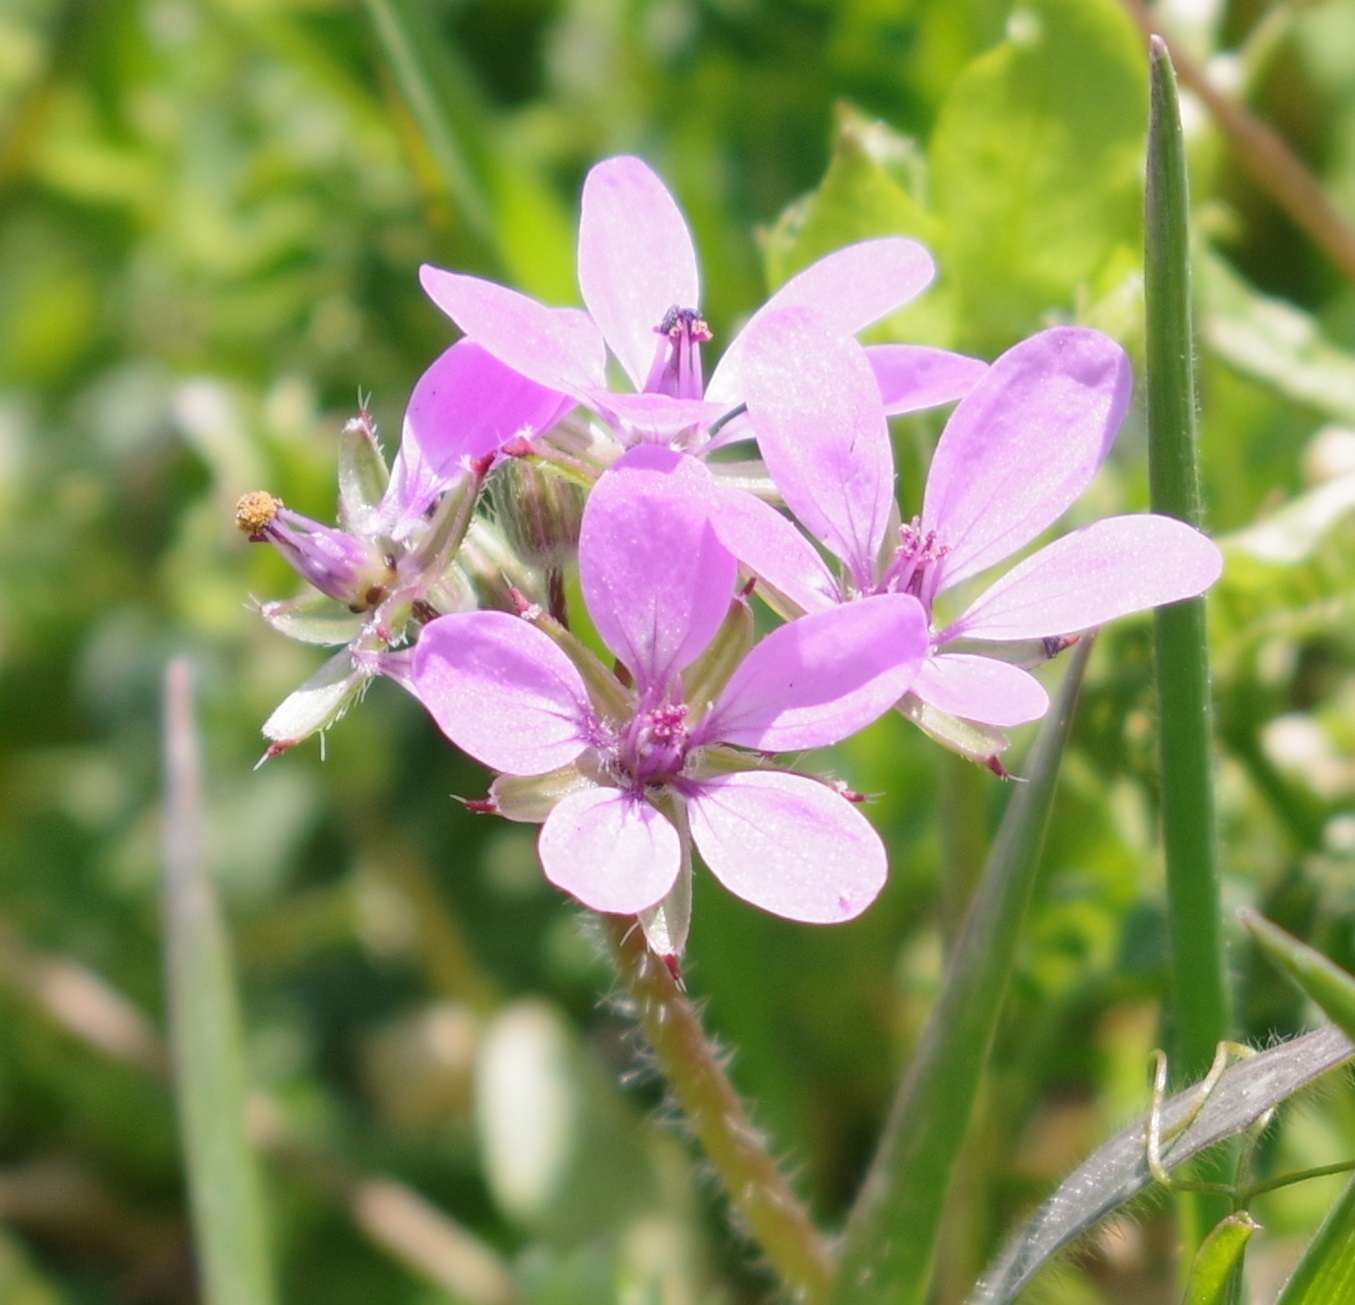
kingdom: Plantae
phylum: Tracheophyta
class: Magnoliopsida
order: Geraniales
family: Geraniaceae
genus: Erodium
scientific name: Erodium cicutarium
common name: Common stork's-bill
